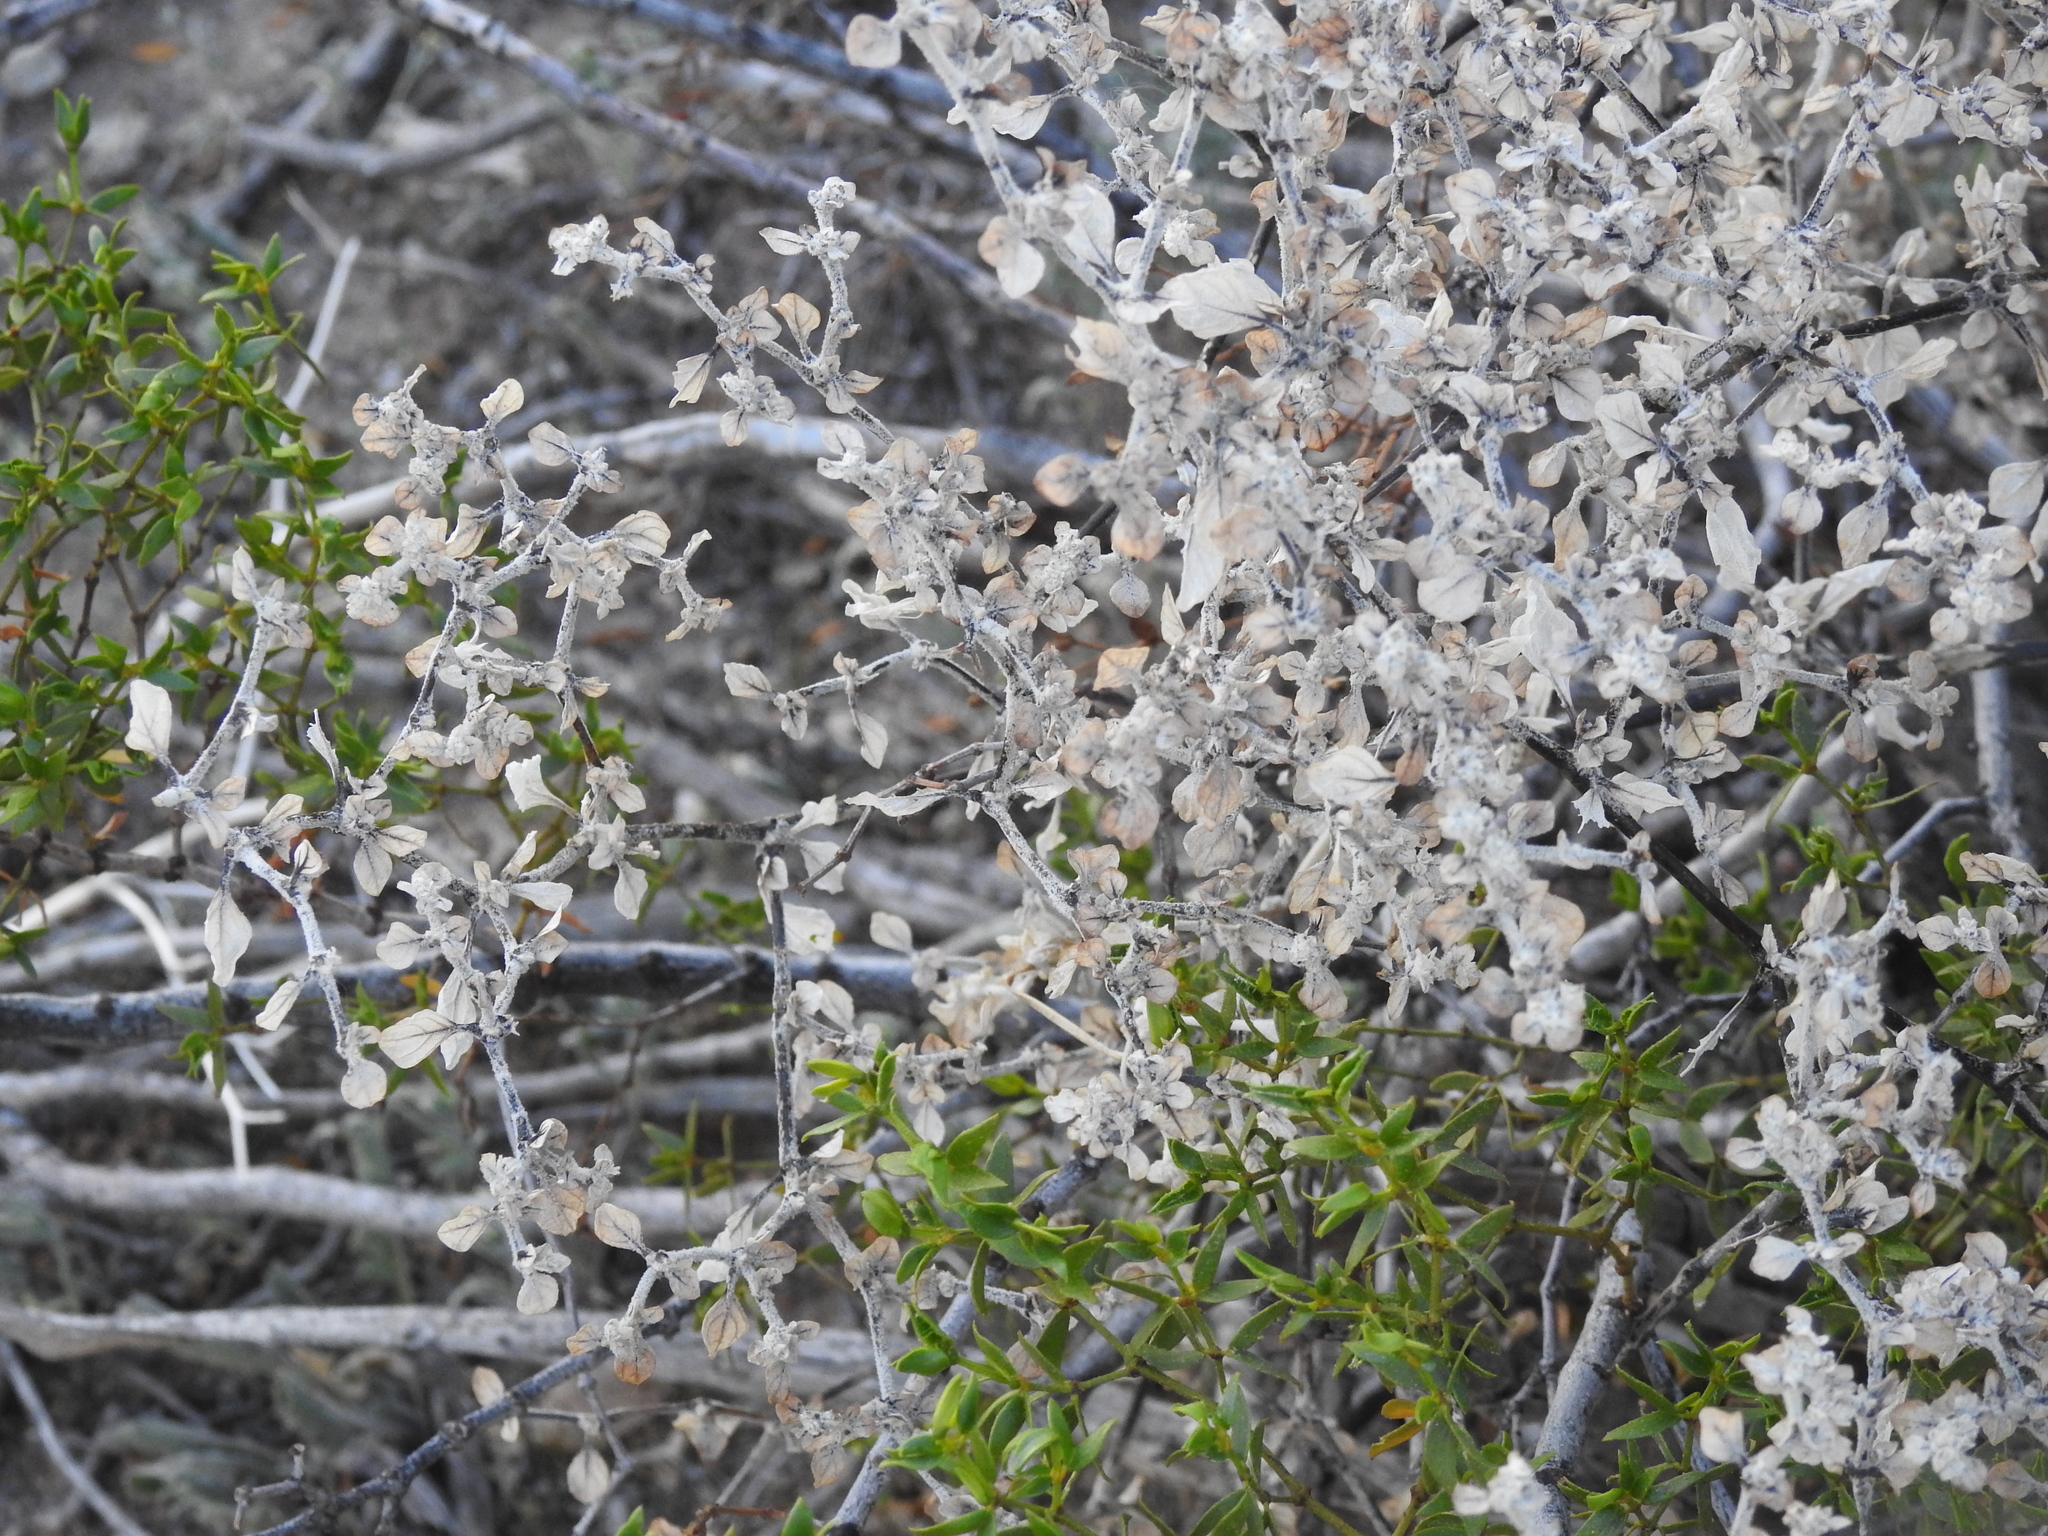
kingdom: Plantae
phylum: Tracheophyta
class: Magnoliopsida
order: Caryophyllales
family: Amaranthaceae
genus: Tidestromia
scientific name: Tidestromia lanuginosa
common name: Woolly tidestromia
